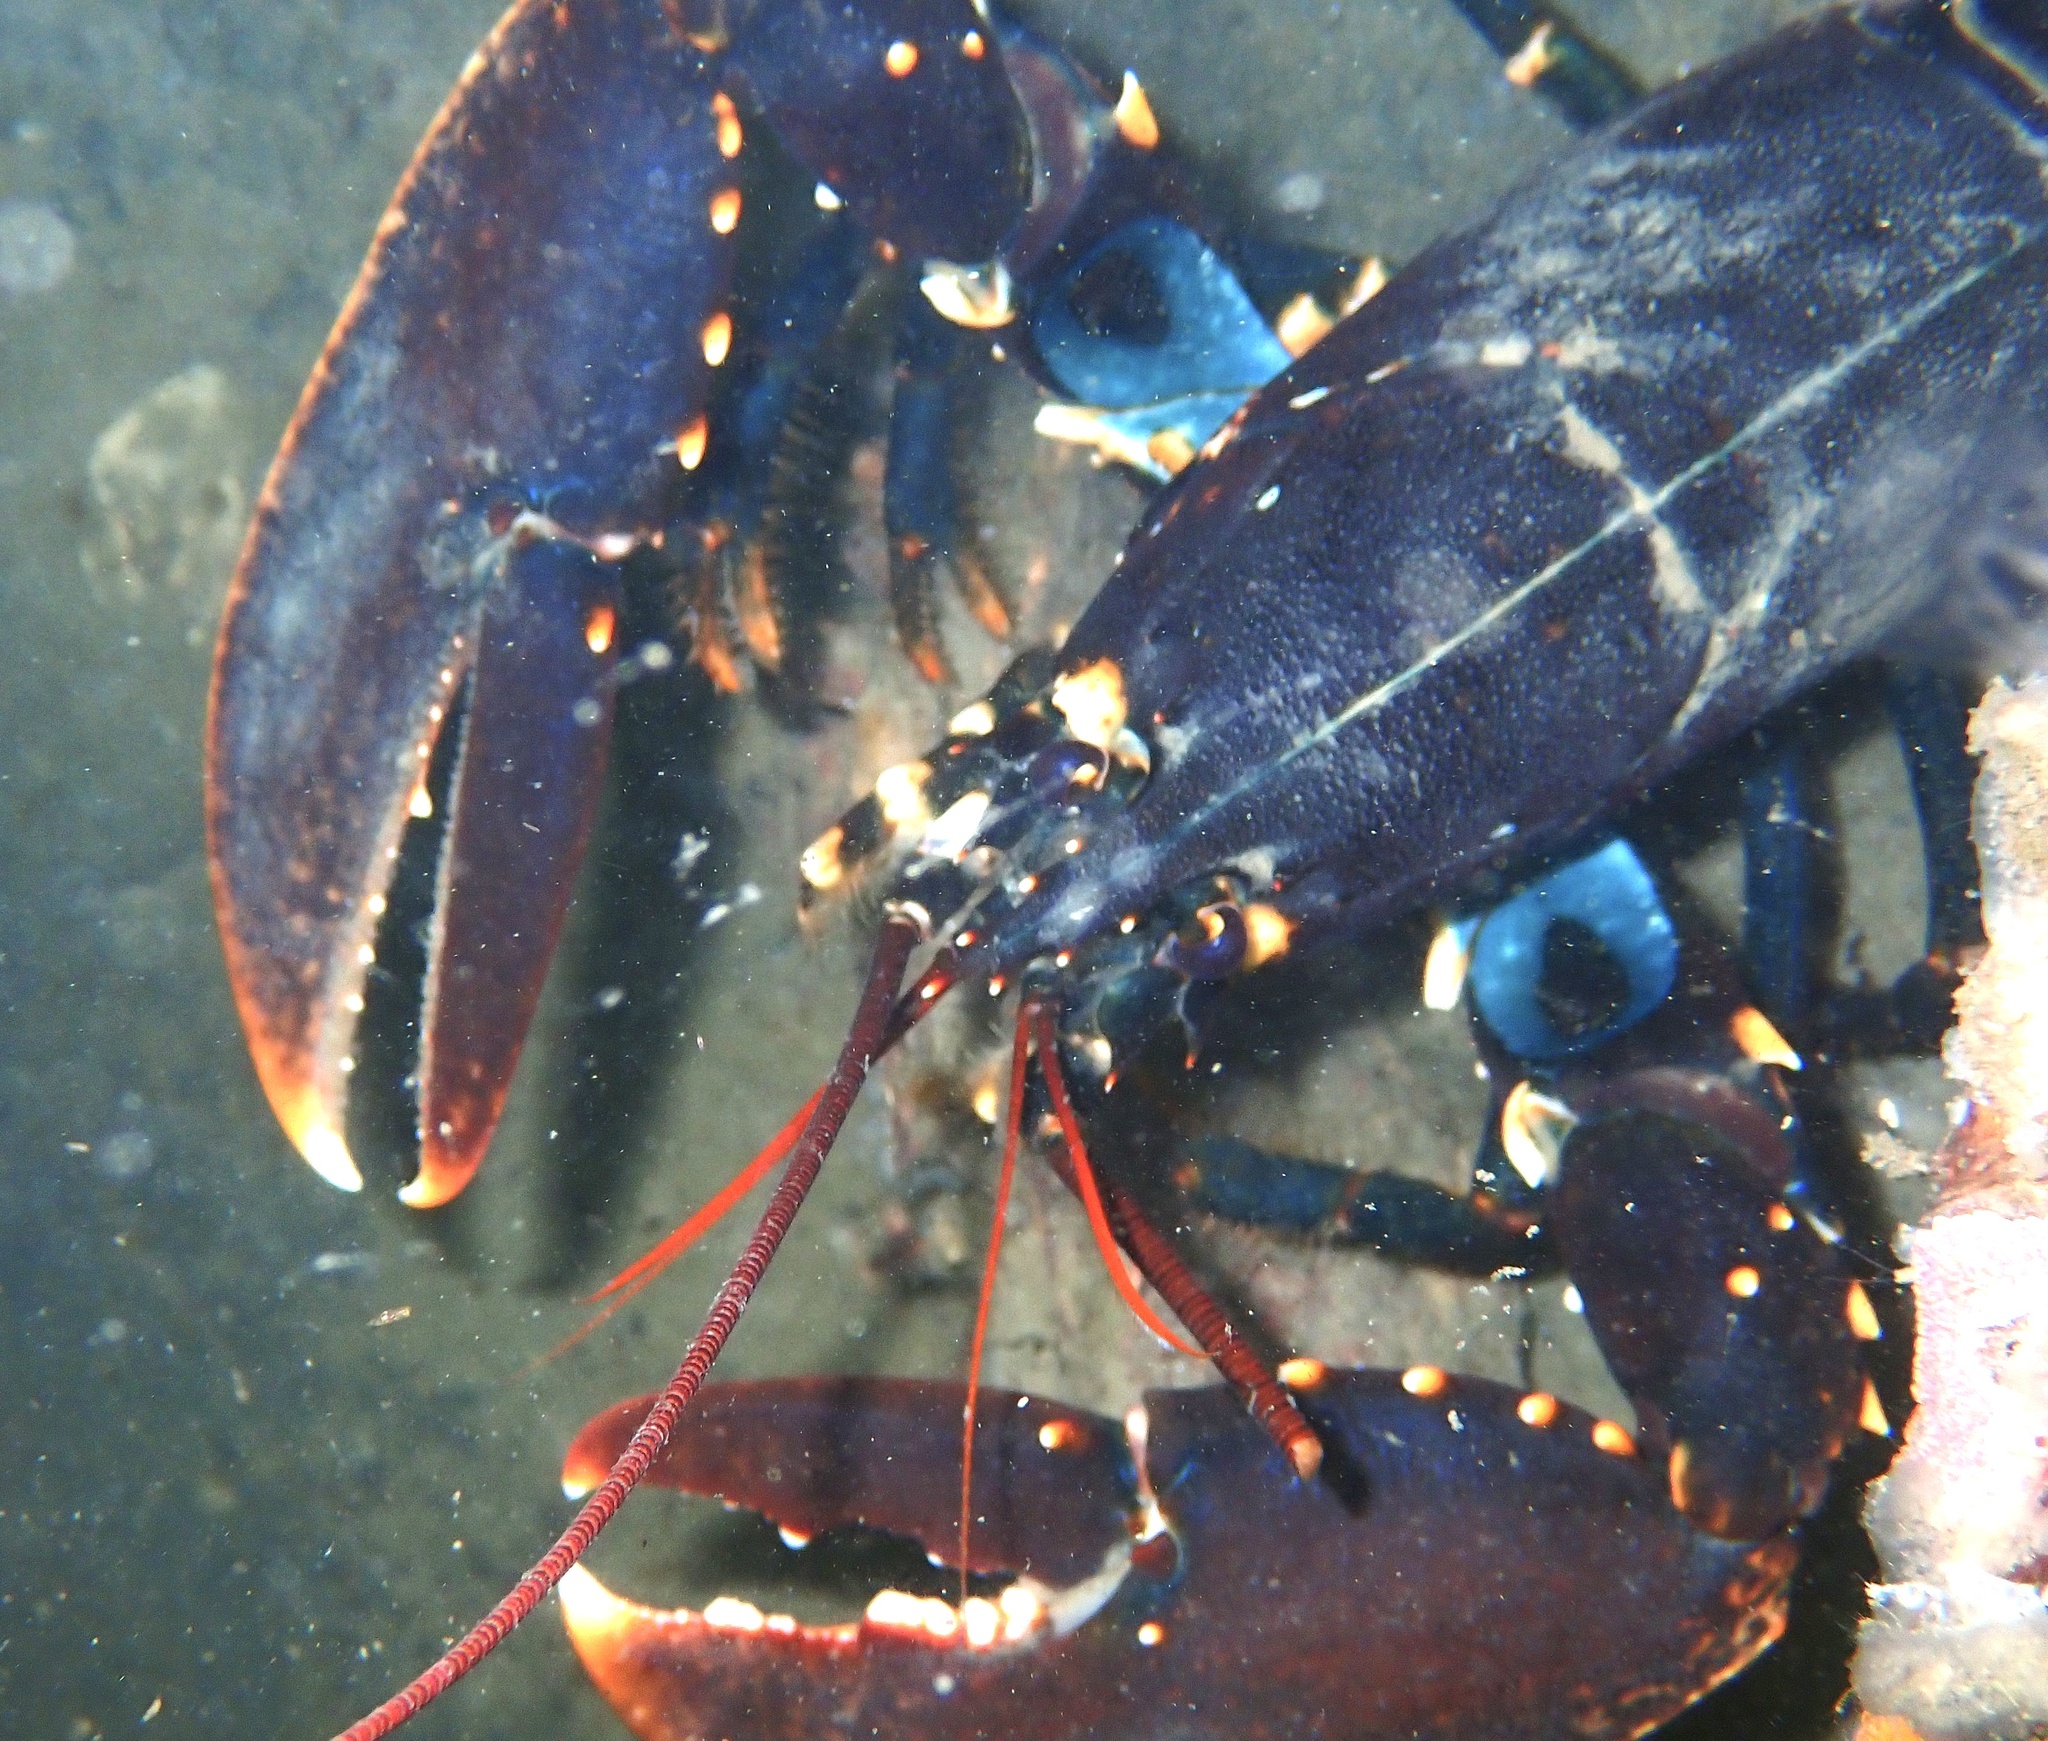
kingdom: Animalia
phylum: Arthropoda
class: Malacostraca
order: Decapoda
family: Nephropidae
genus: Homarus
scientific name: Homarus gammarus
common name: European lobster
